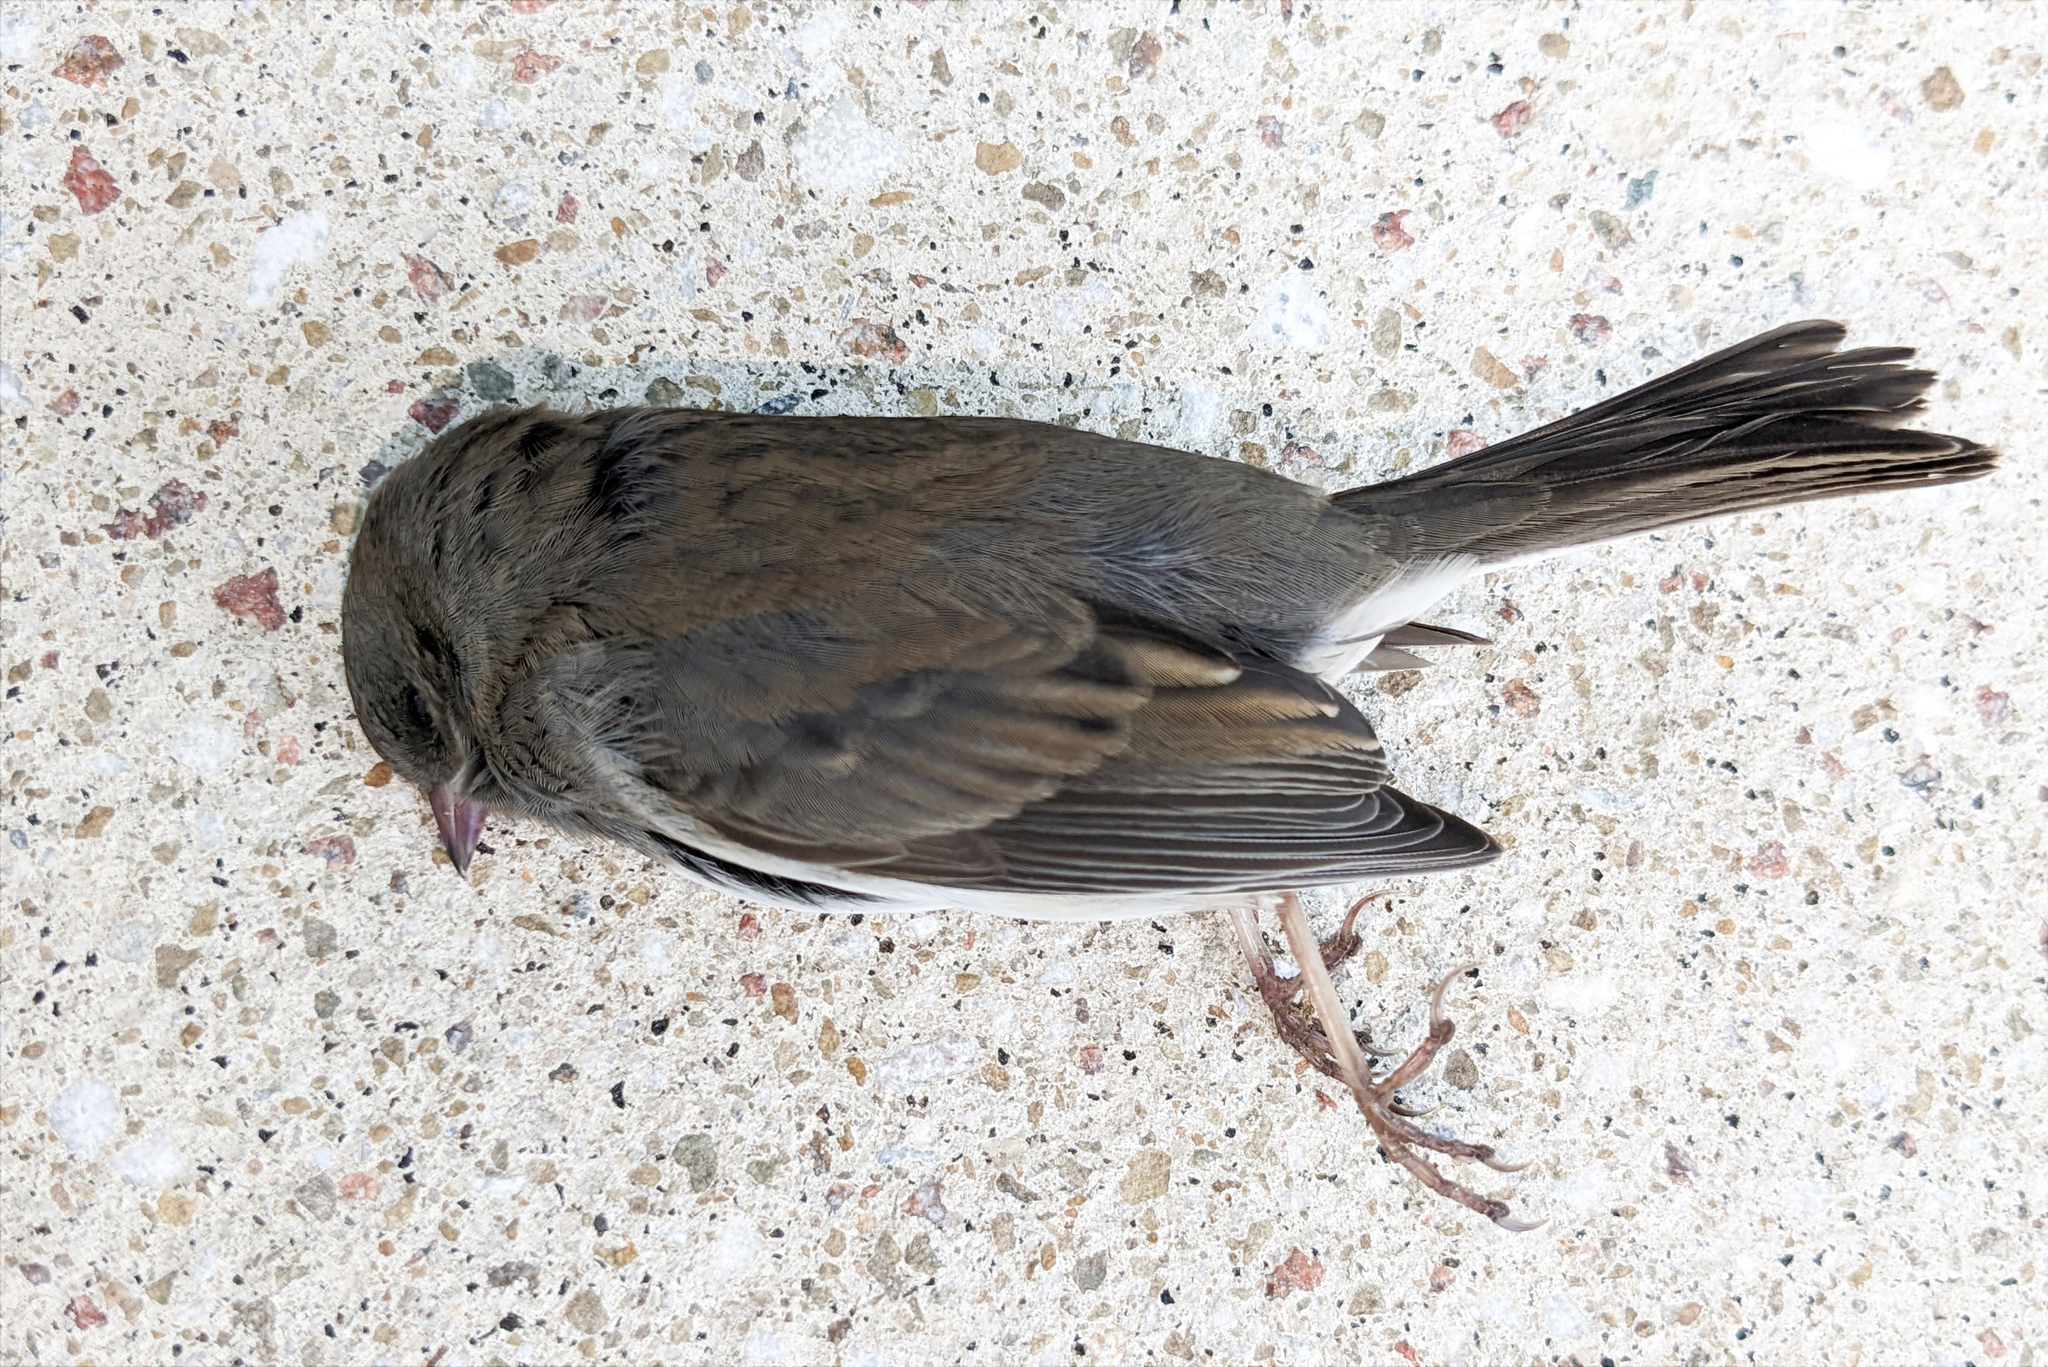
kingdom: Animalia
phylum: Chordata
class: Aves
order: Passeriformes
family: Passerellidae
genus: Junco
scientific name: Junco hyemalis
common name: Dark-eyed junco
